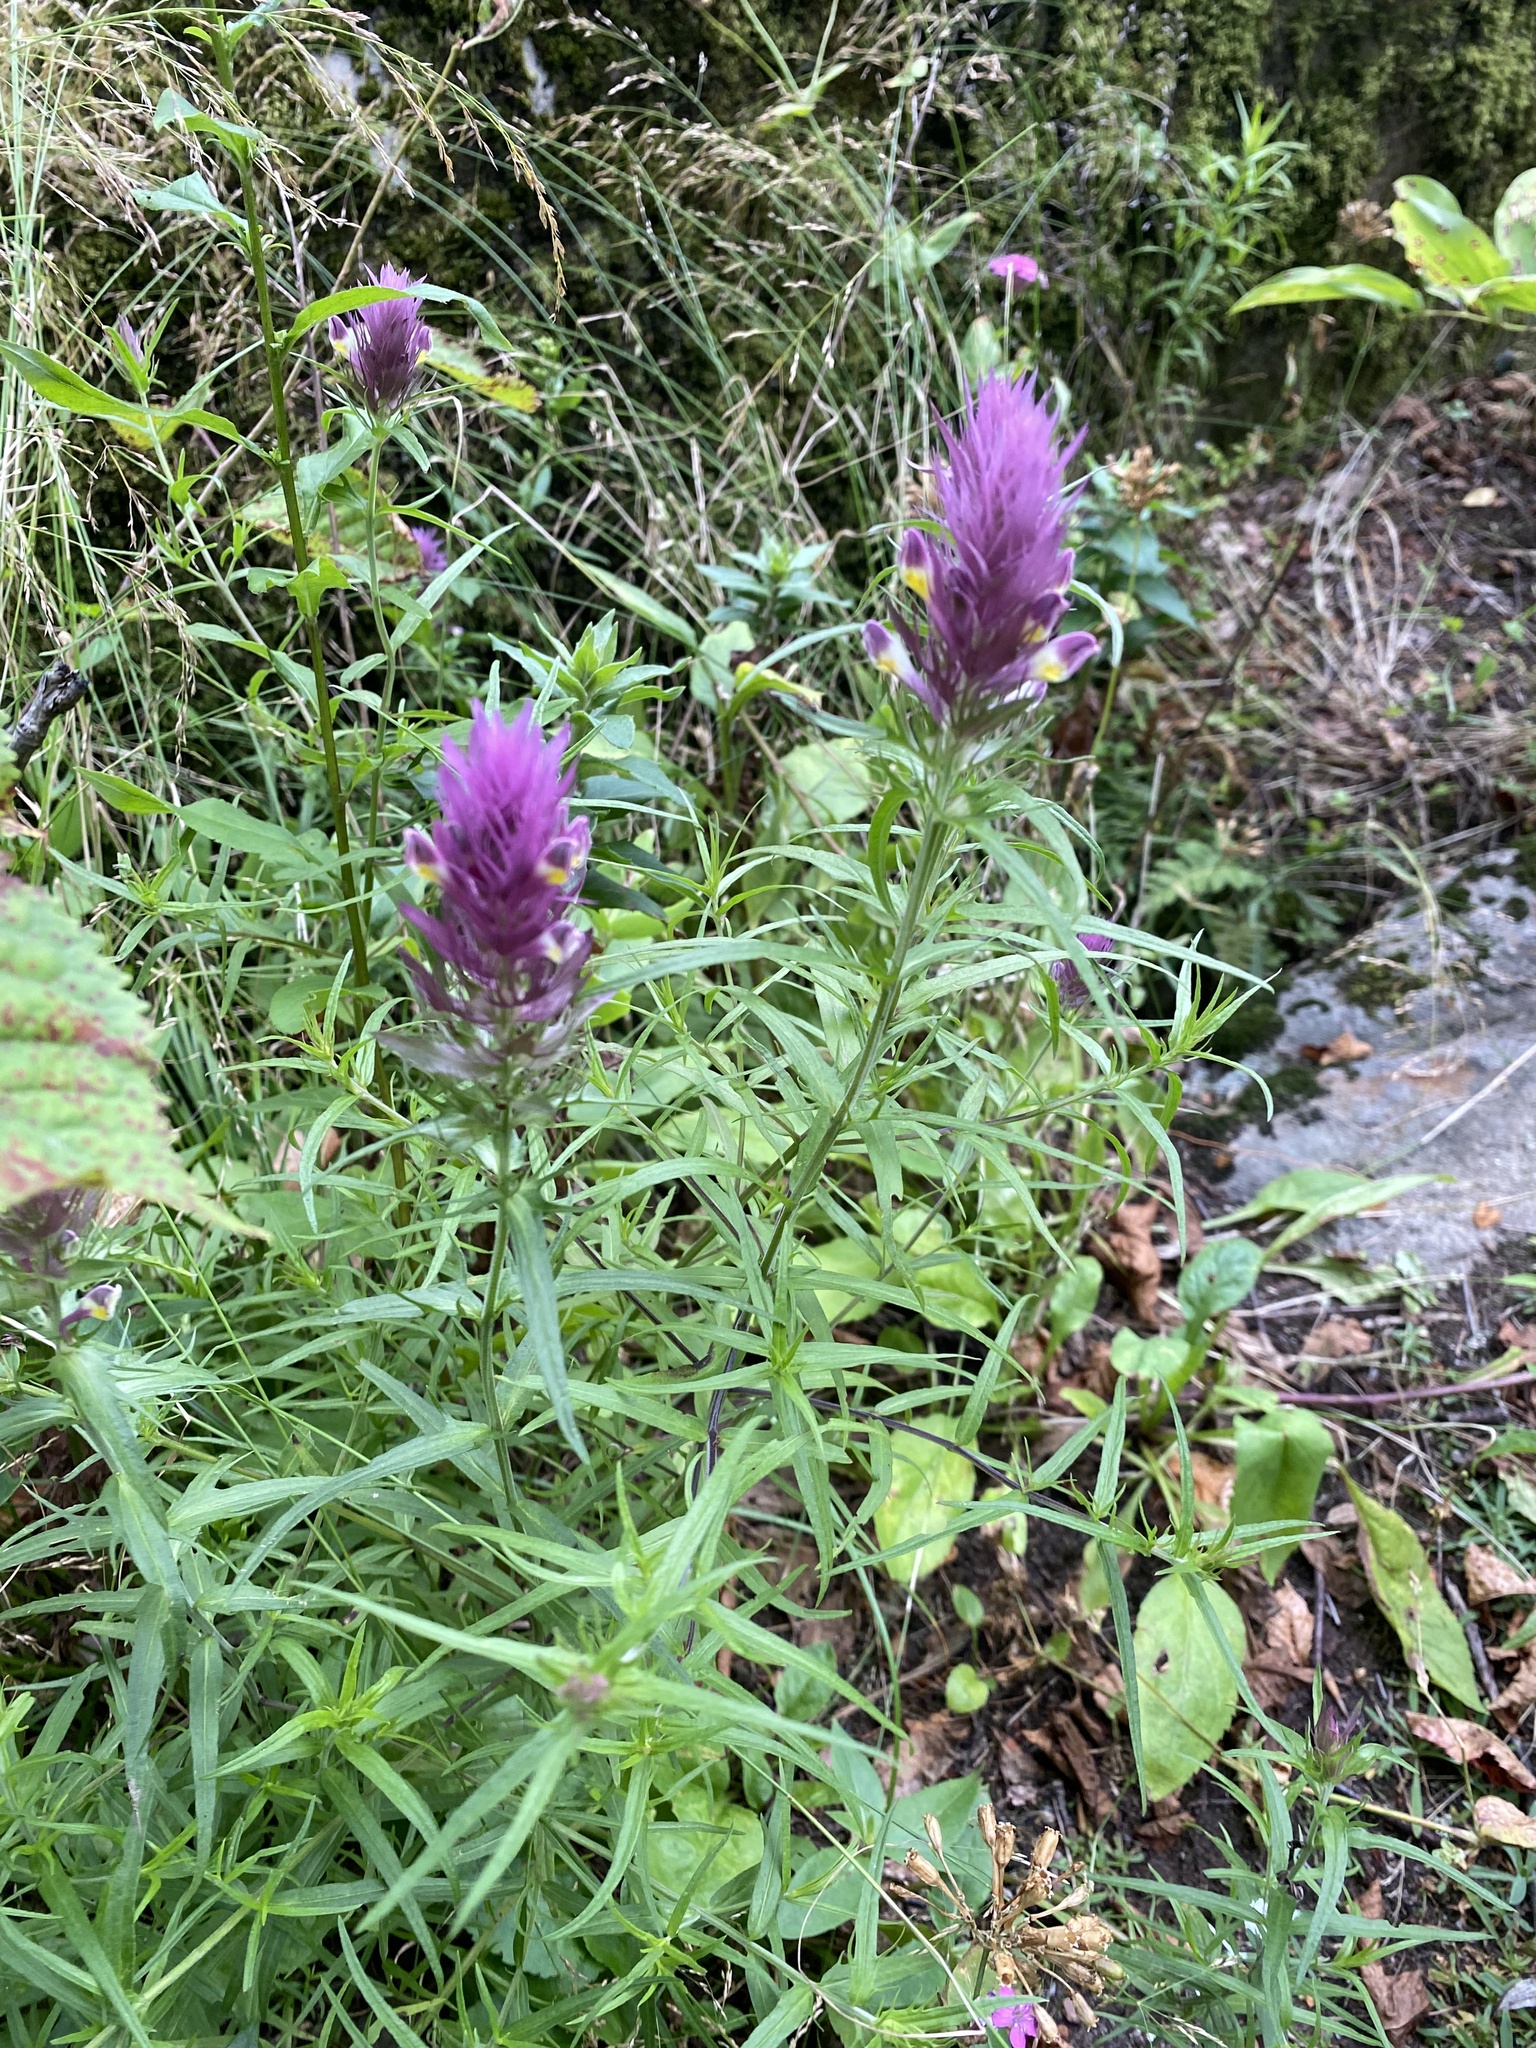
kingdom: Plantae
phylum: Tracheophyta
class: Magnoliopsida
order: Lamiales
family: Orobanchaceae
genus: Melampyrum
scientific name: Melampyrum arvense
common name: Field cow-wheat
